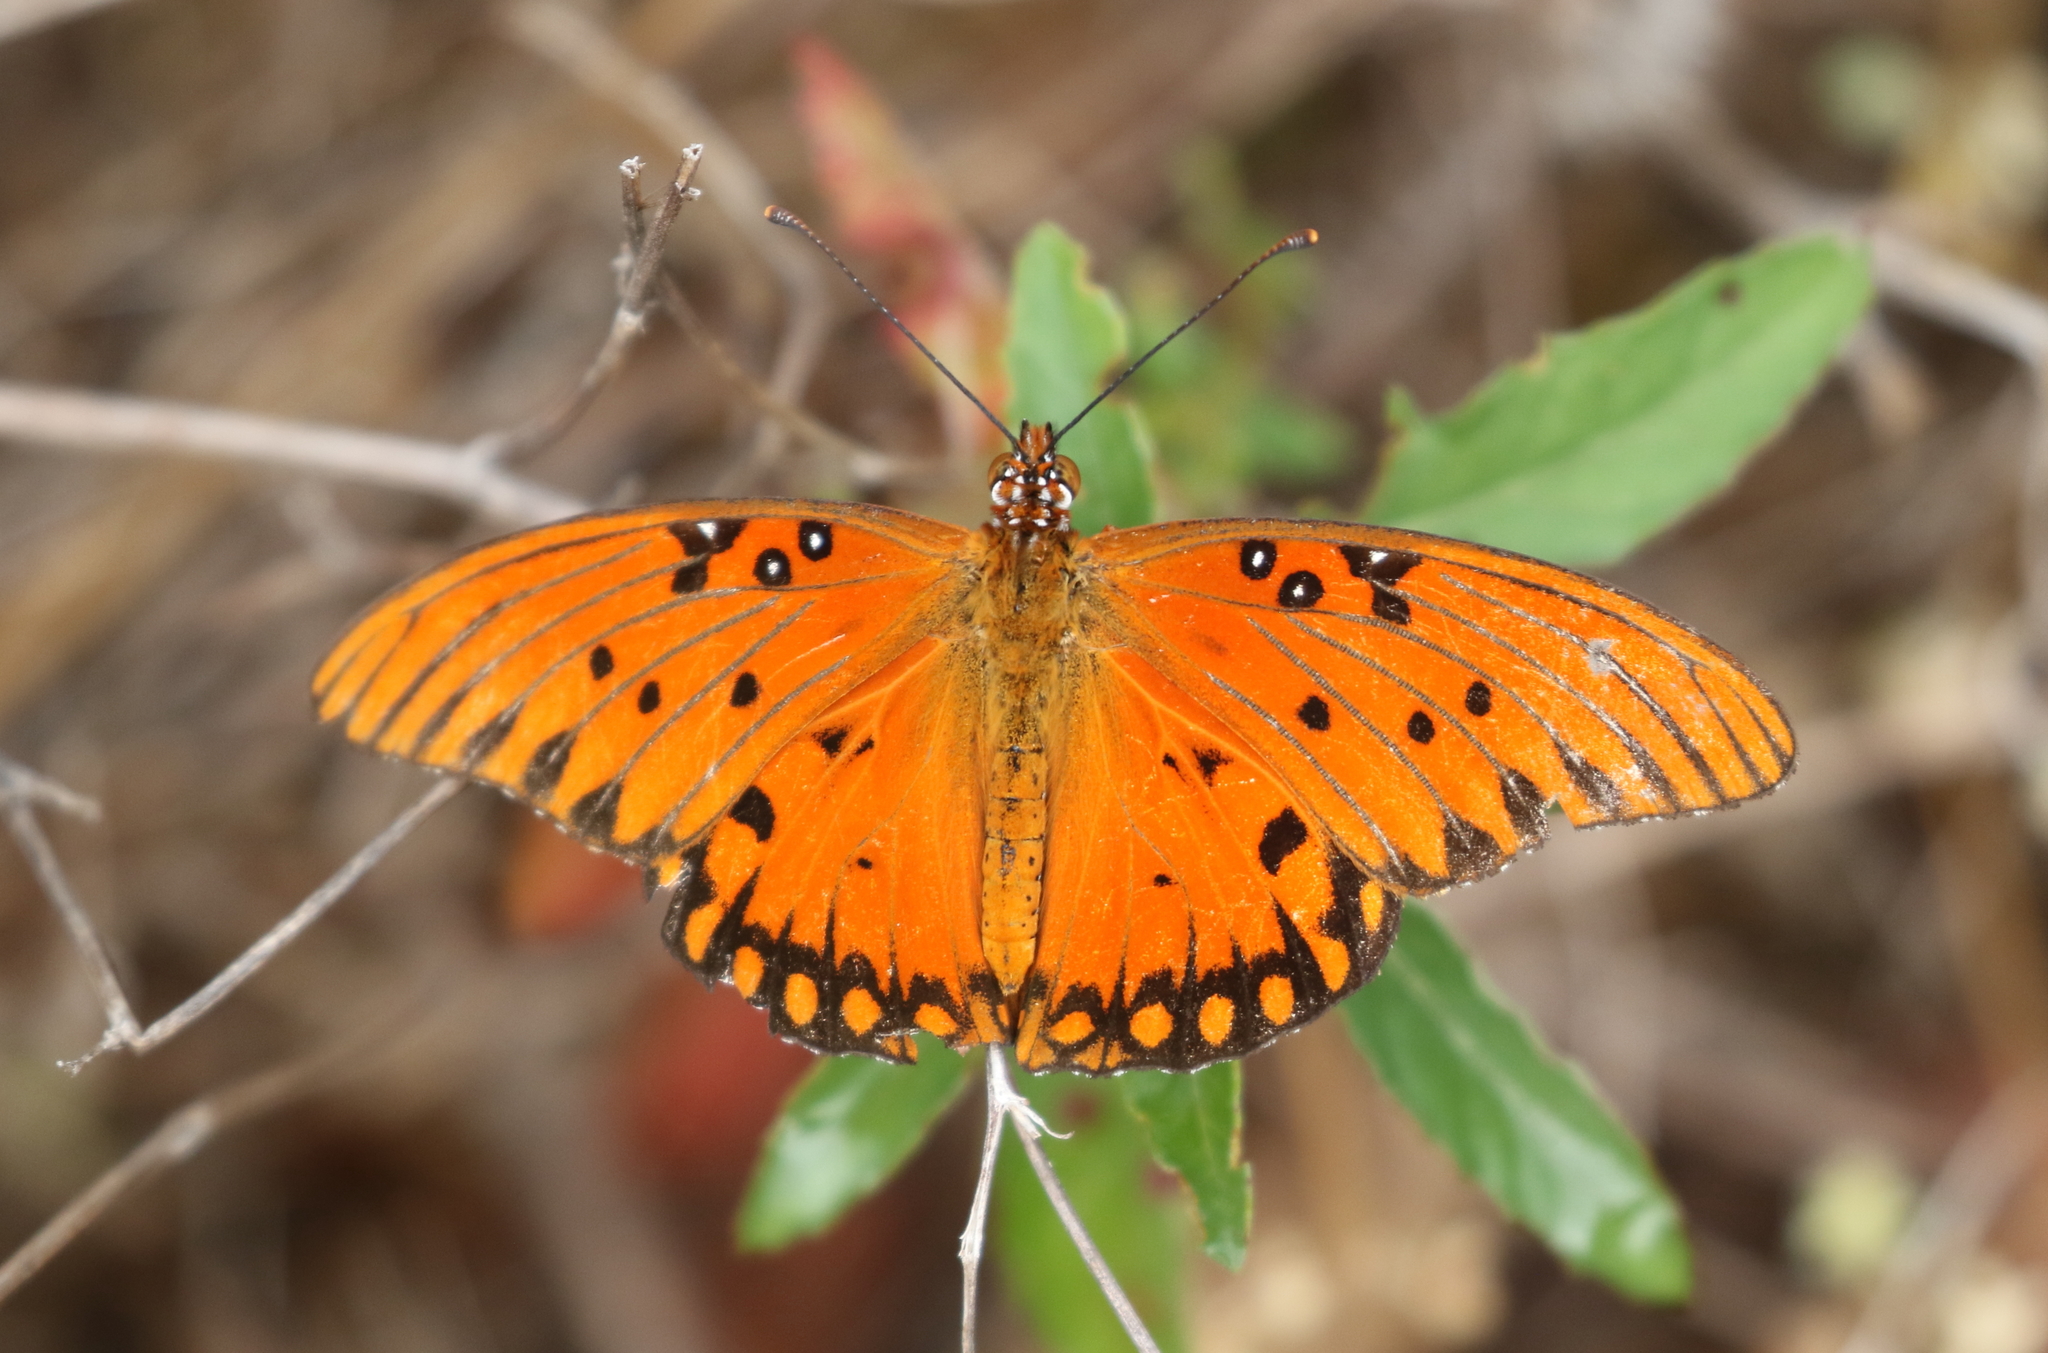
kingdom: Animalia
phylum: Arthropoda
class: Insecta
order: Lepidoptera
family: Nymphalidae
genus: Dione
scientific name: Dione vanillae
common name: Gulf fritillary
